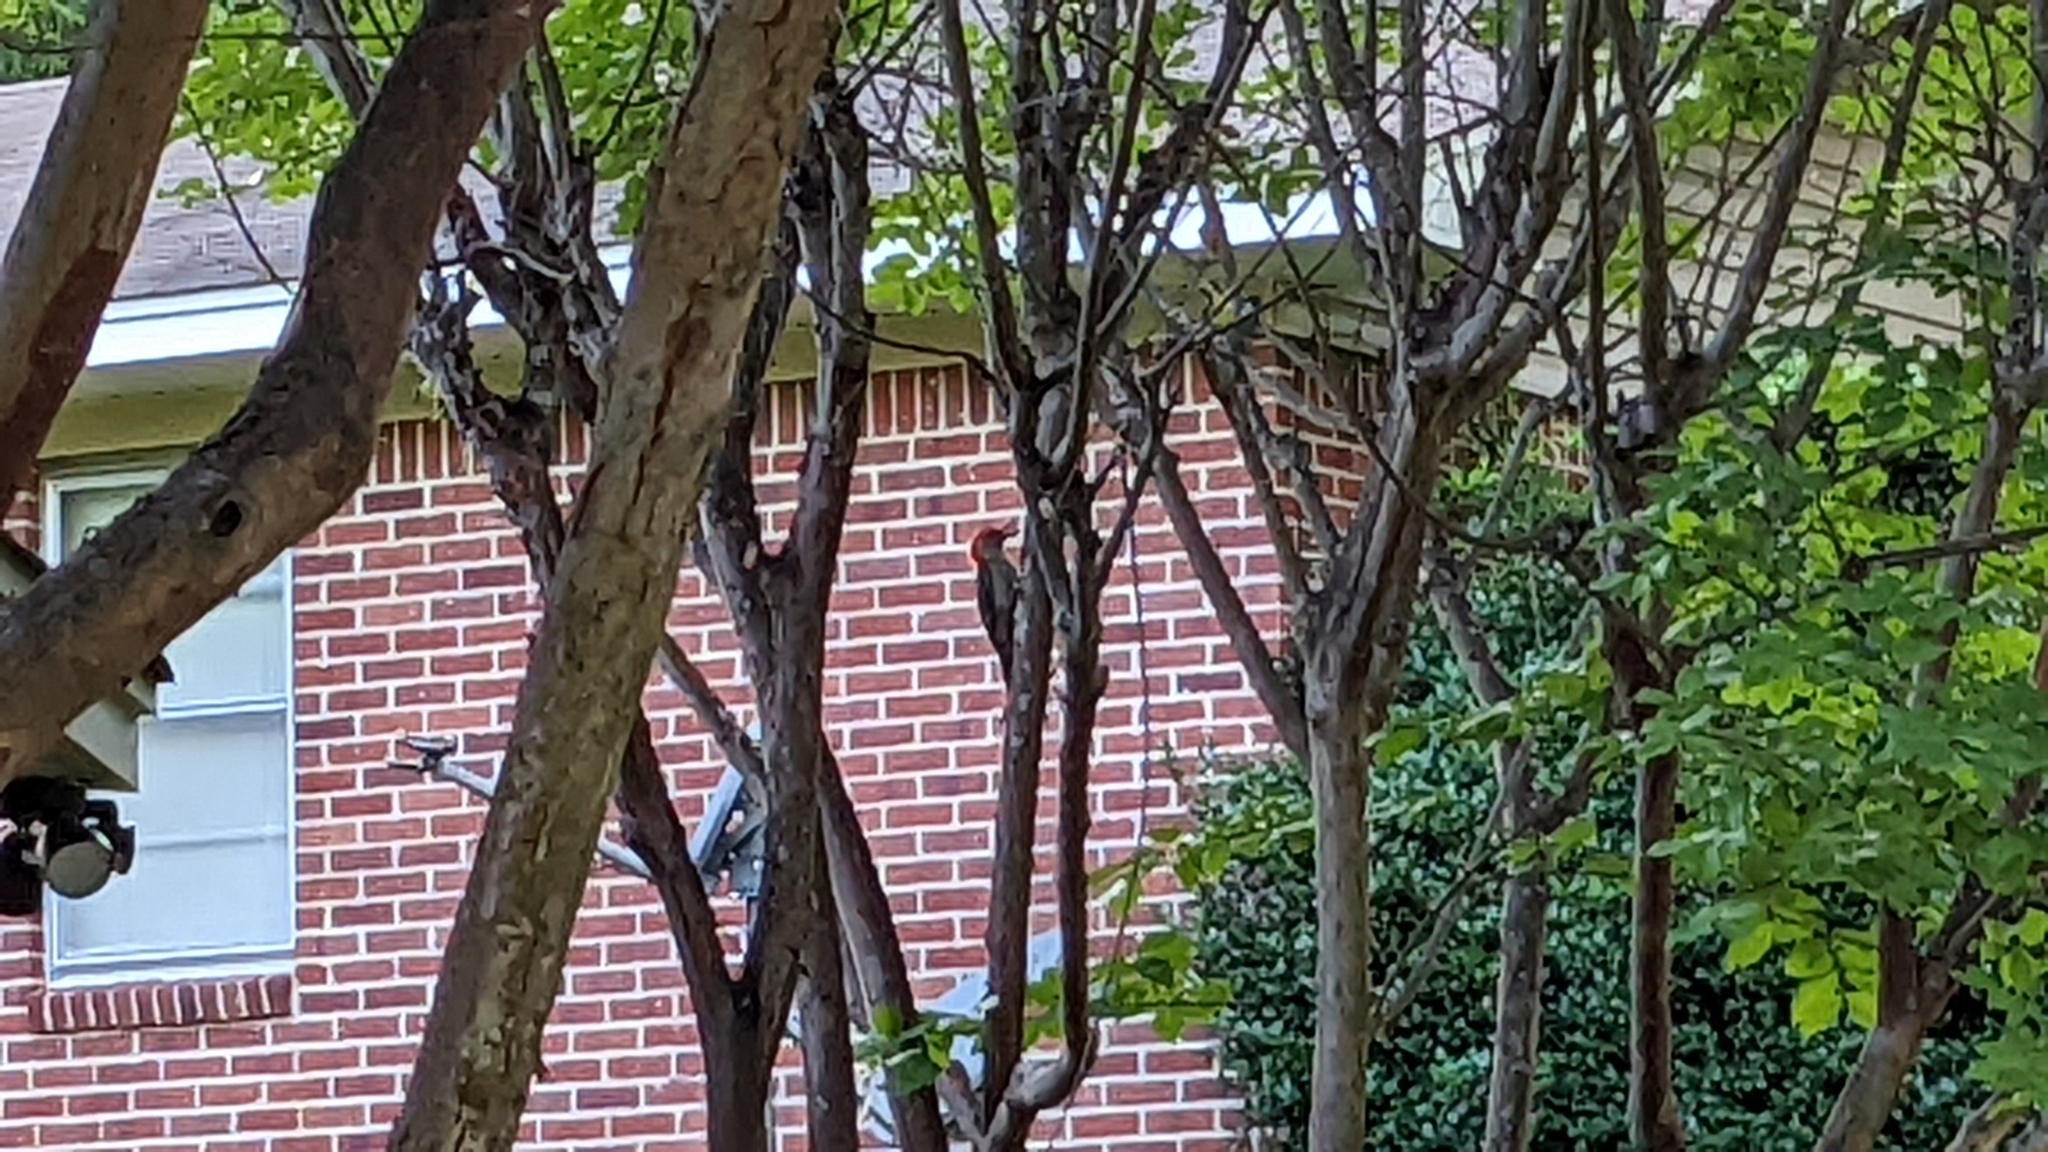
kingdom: Animalia
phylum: Chordata
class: Aves
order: Piciformes
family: Picidae
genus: Melanerpes
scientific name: Melanerpes carolinus
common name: Red-bellied woodpecker
